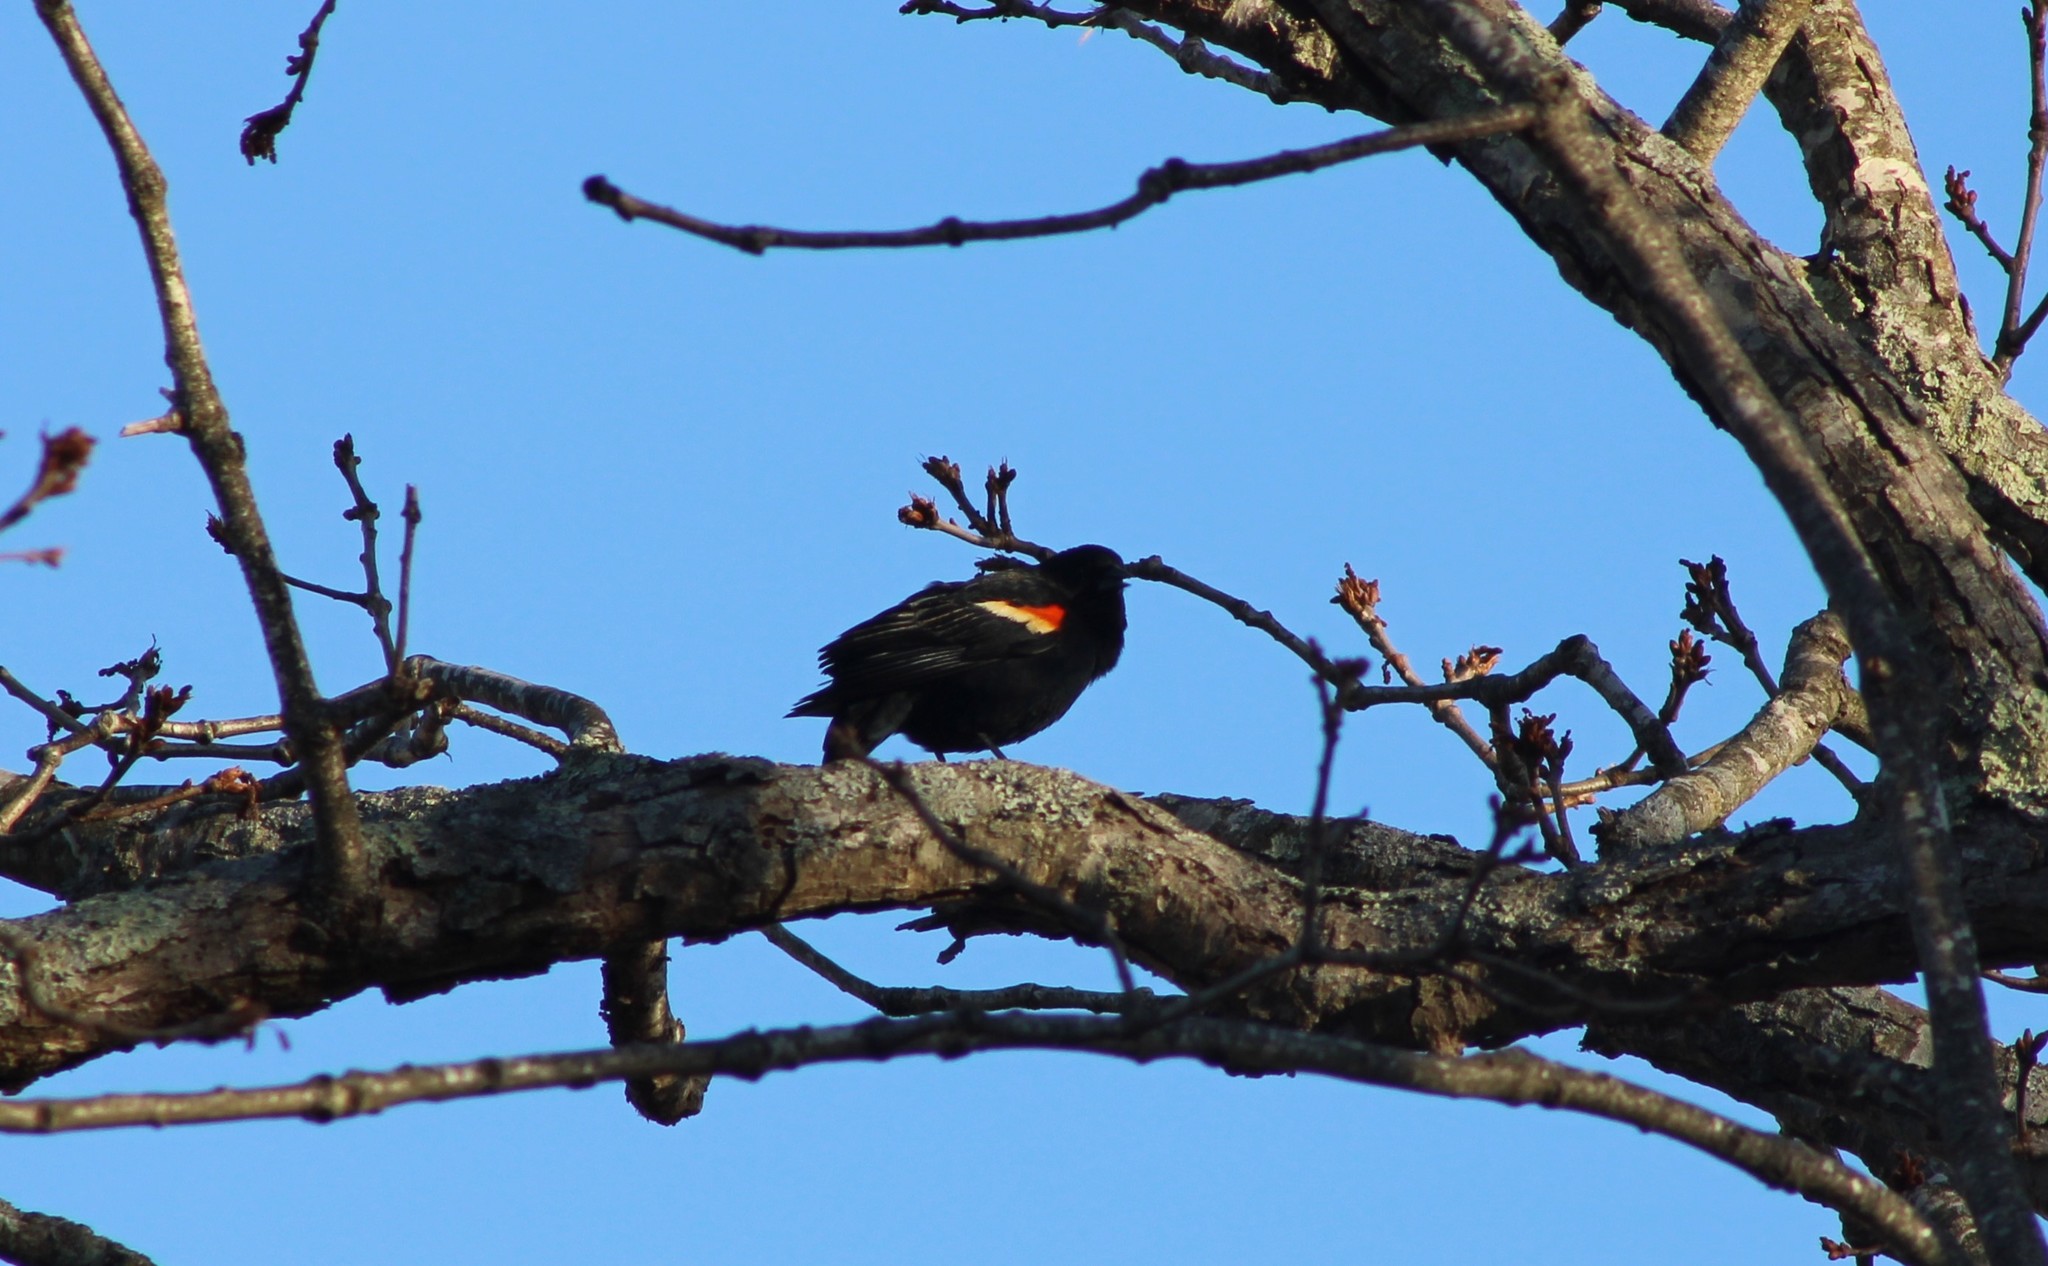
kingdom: Animalia
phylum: Chordata
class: Aves
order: Passeriformes
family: Icteridae
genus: Agelaius
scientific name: Agelaius phoeniceus
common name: Red-winged blackbird
